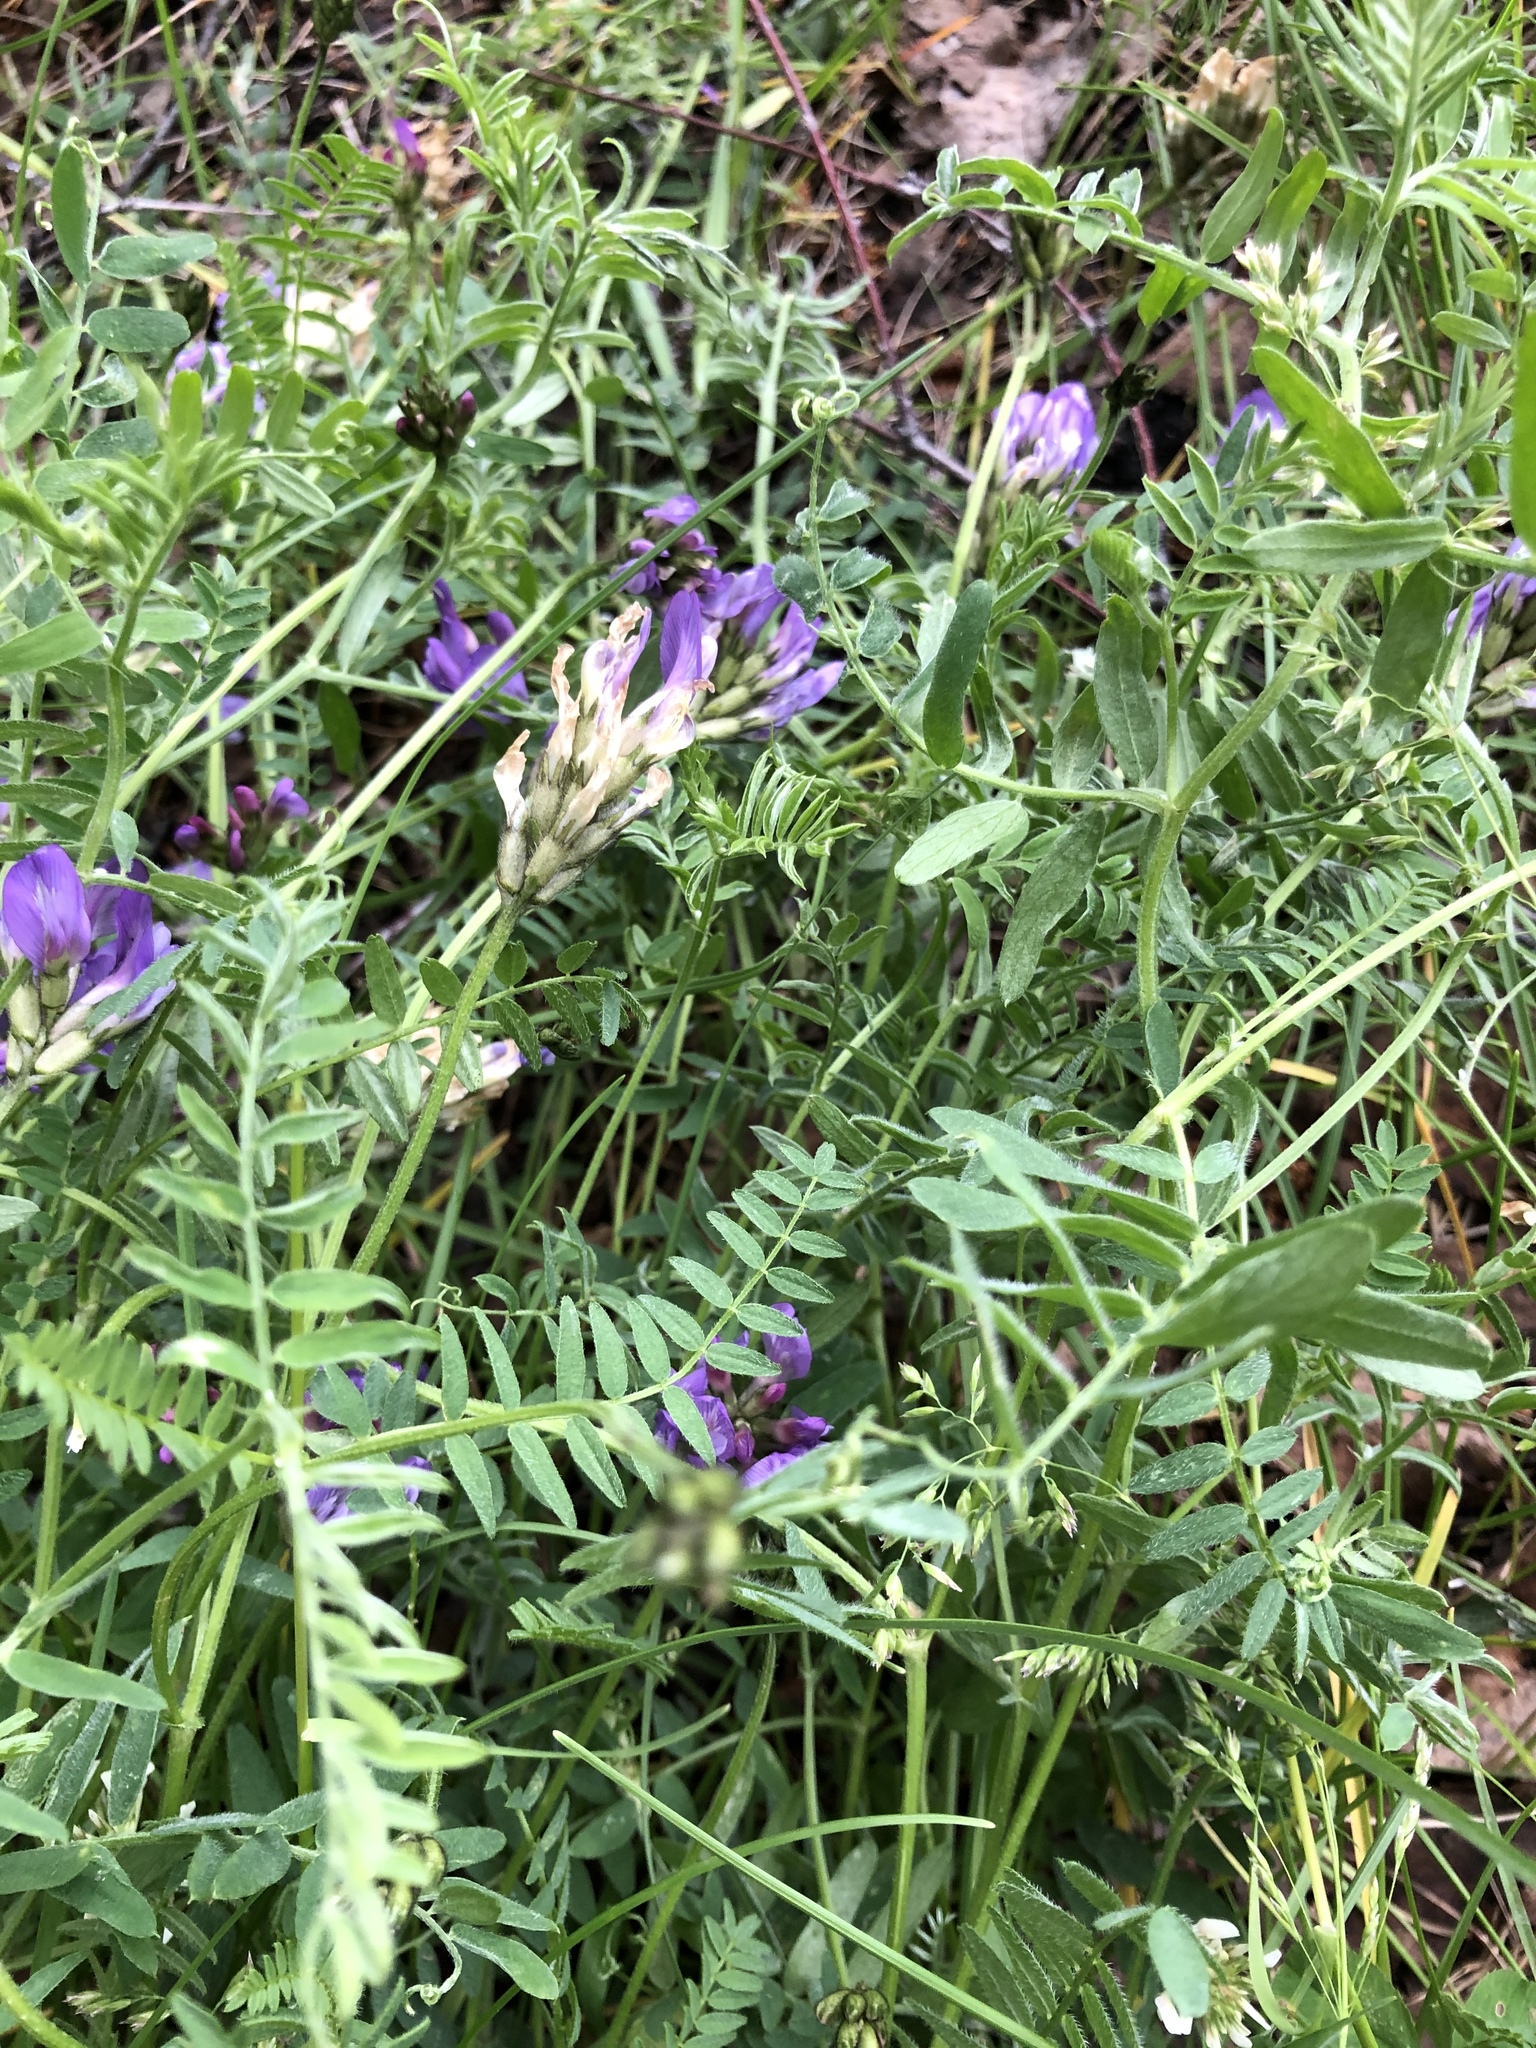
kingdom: Plantae
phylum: Tracheophyta
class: Magnoliopsida
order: Fabales
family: Fabaceae
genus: Astragalus
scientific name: Astragalus danicus
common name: Purple milk-vetch
